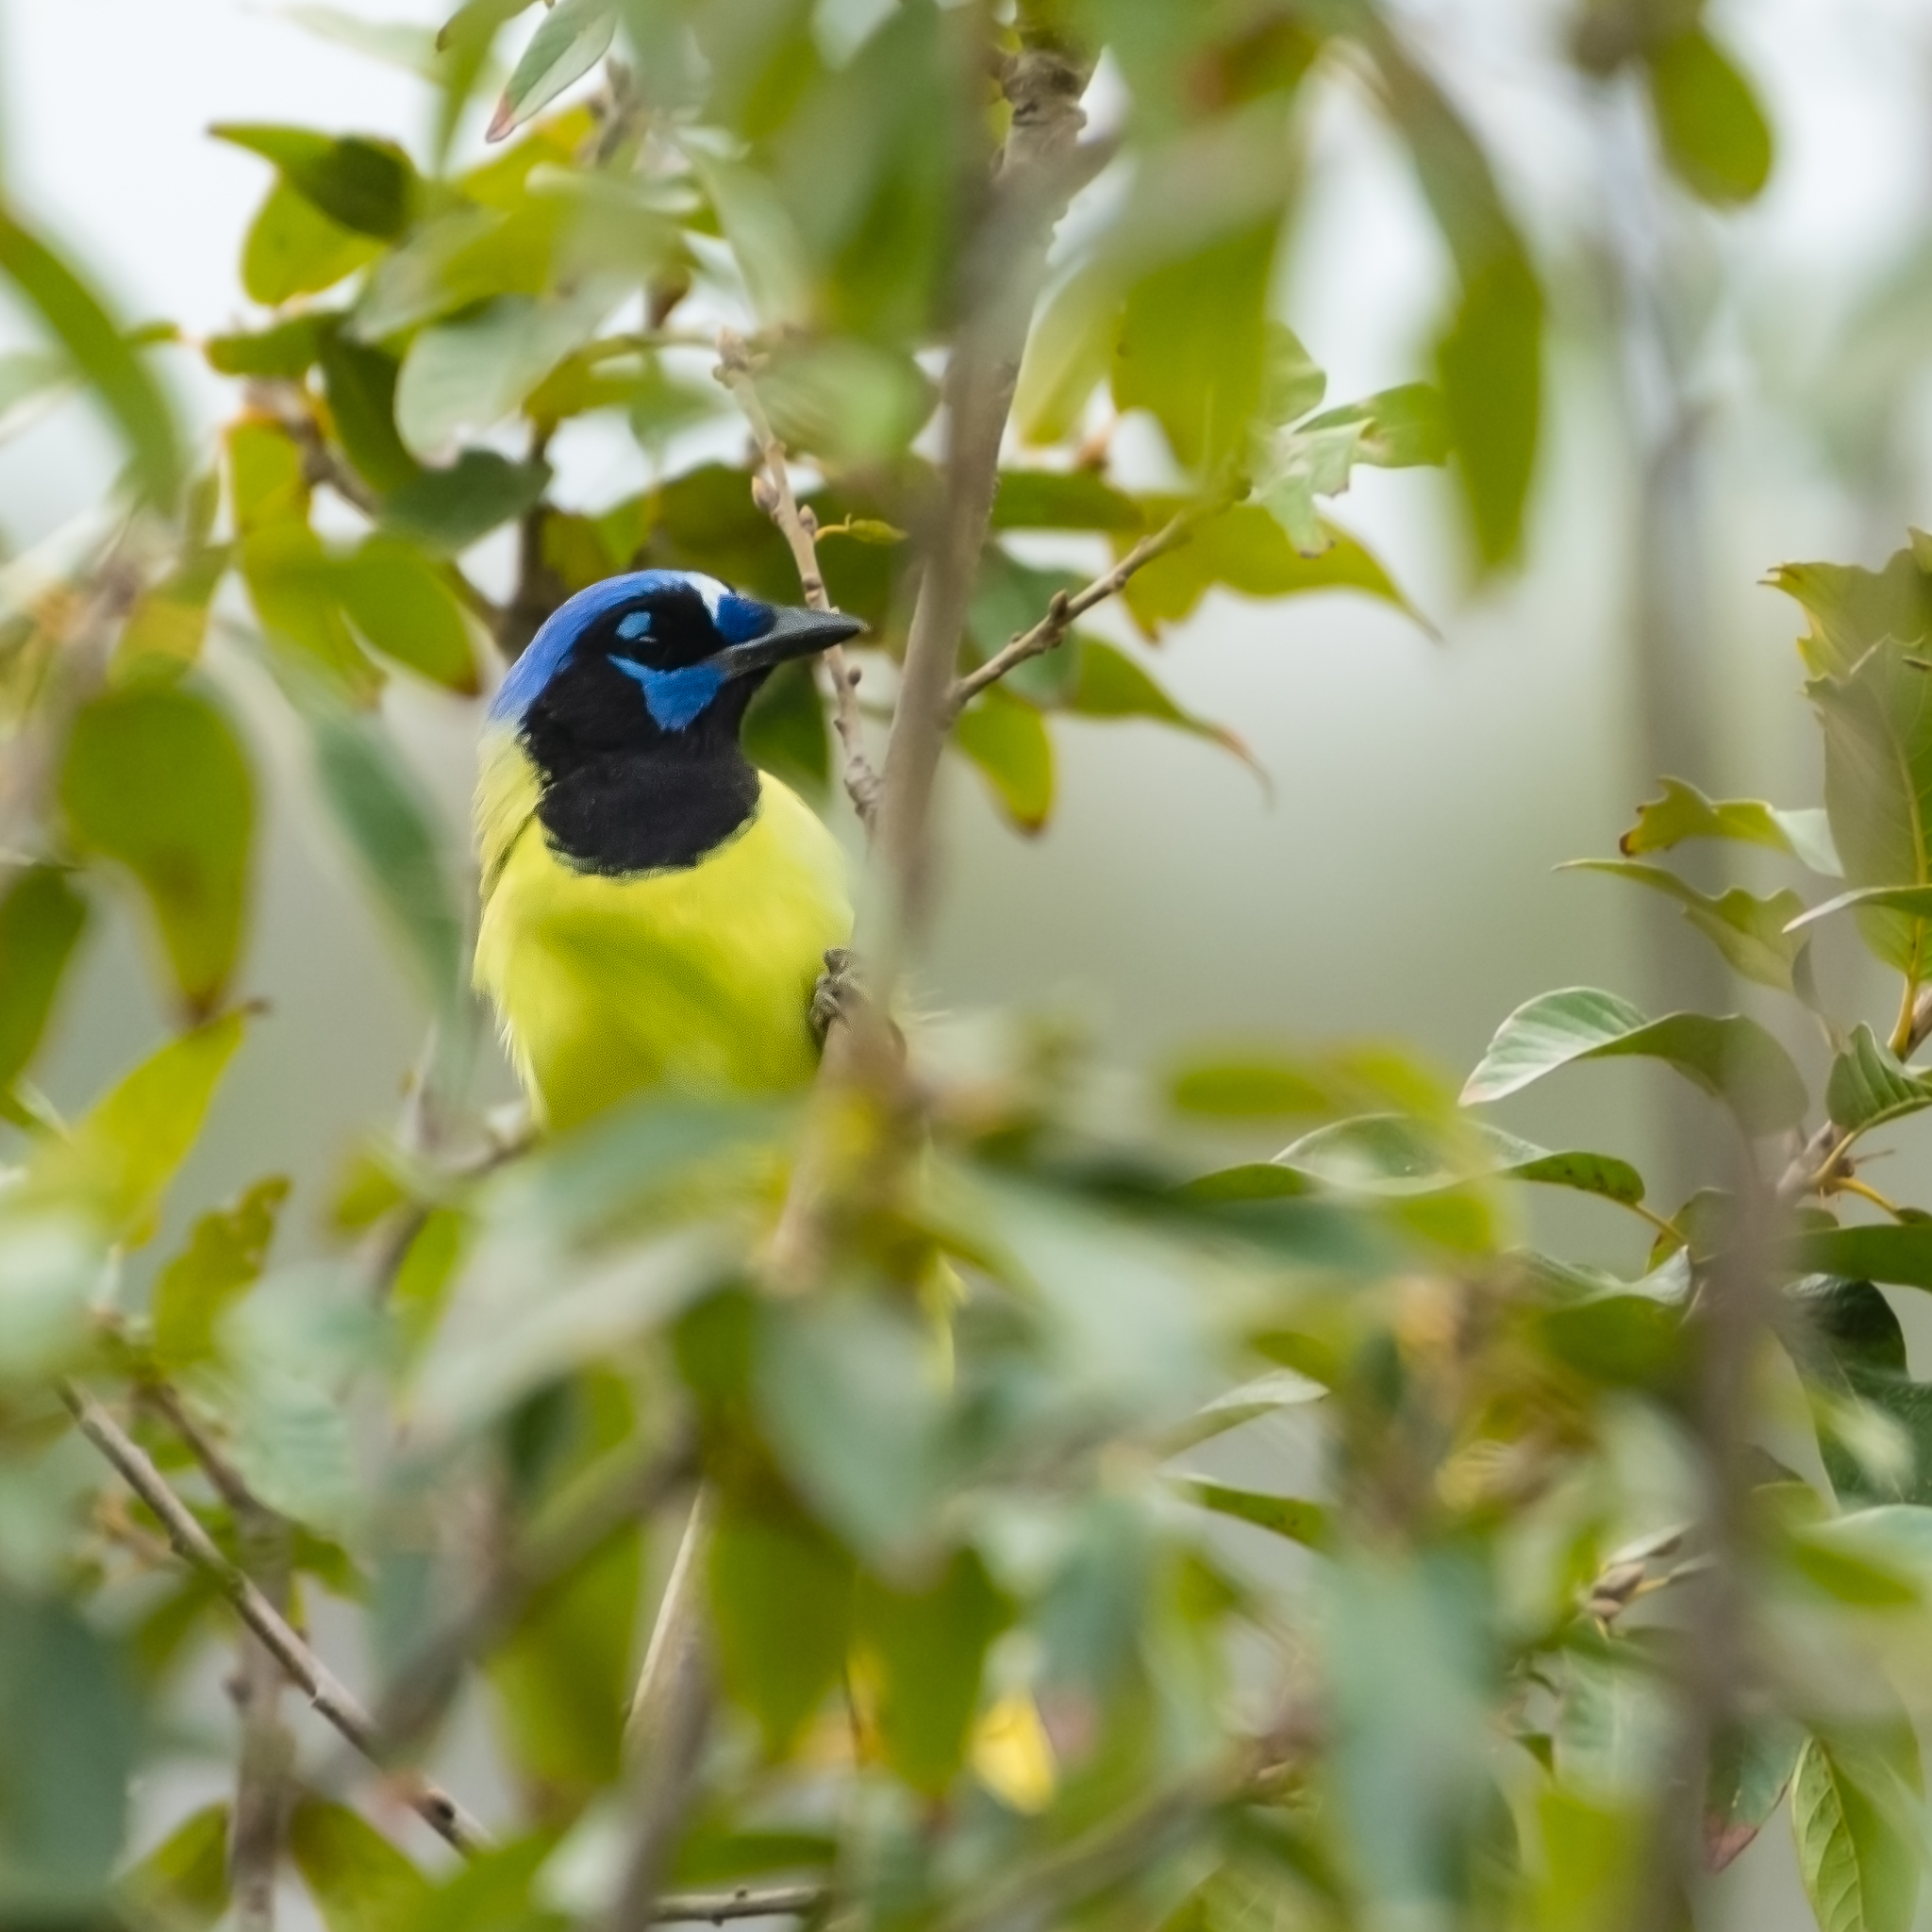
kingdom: Animalia
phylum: Chordata
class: Aves
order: Passeriformes
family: Corvidae
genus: Cyanocorax
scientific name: Cyanocorax yncas
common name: Green jay
